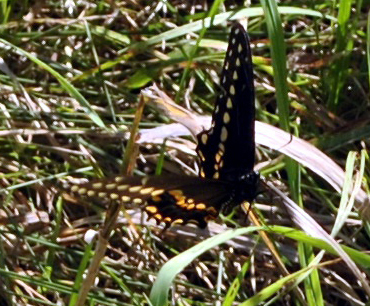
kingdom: Animalia
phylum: Arthropoda
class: Insecta
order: Lepidoptera
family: Papilionidae
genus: Papilio
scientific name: Papilio polyxenes
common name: Black swallowtail
